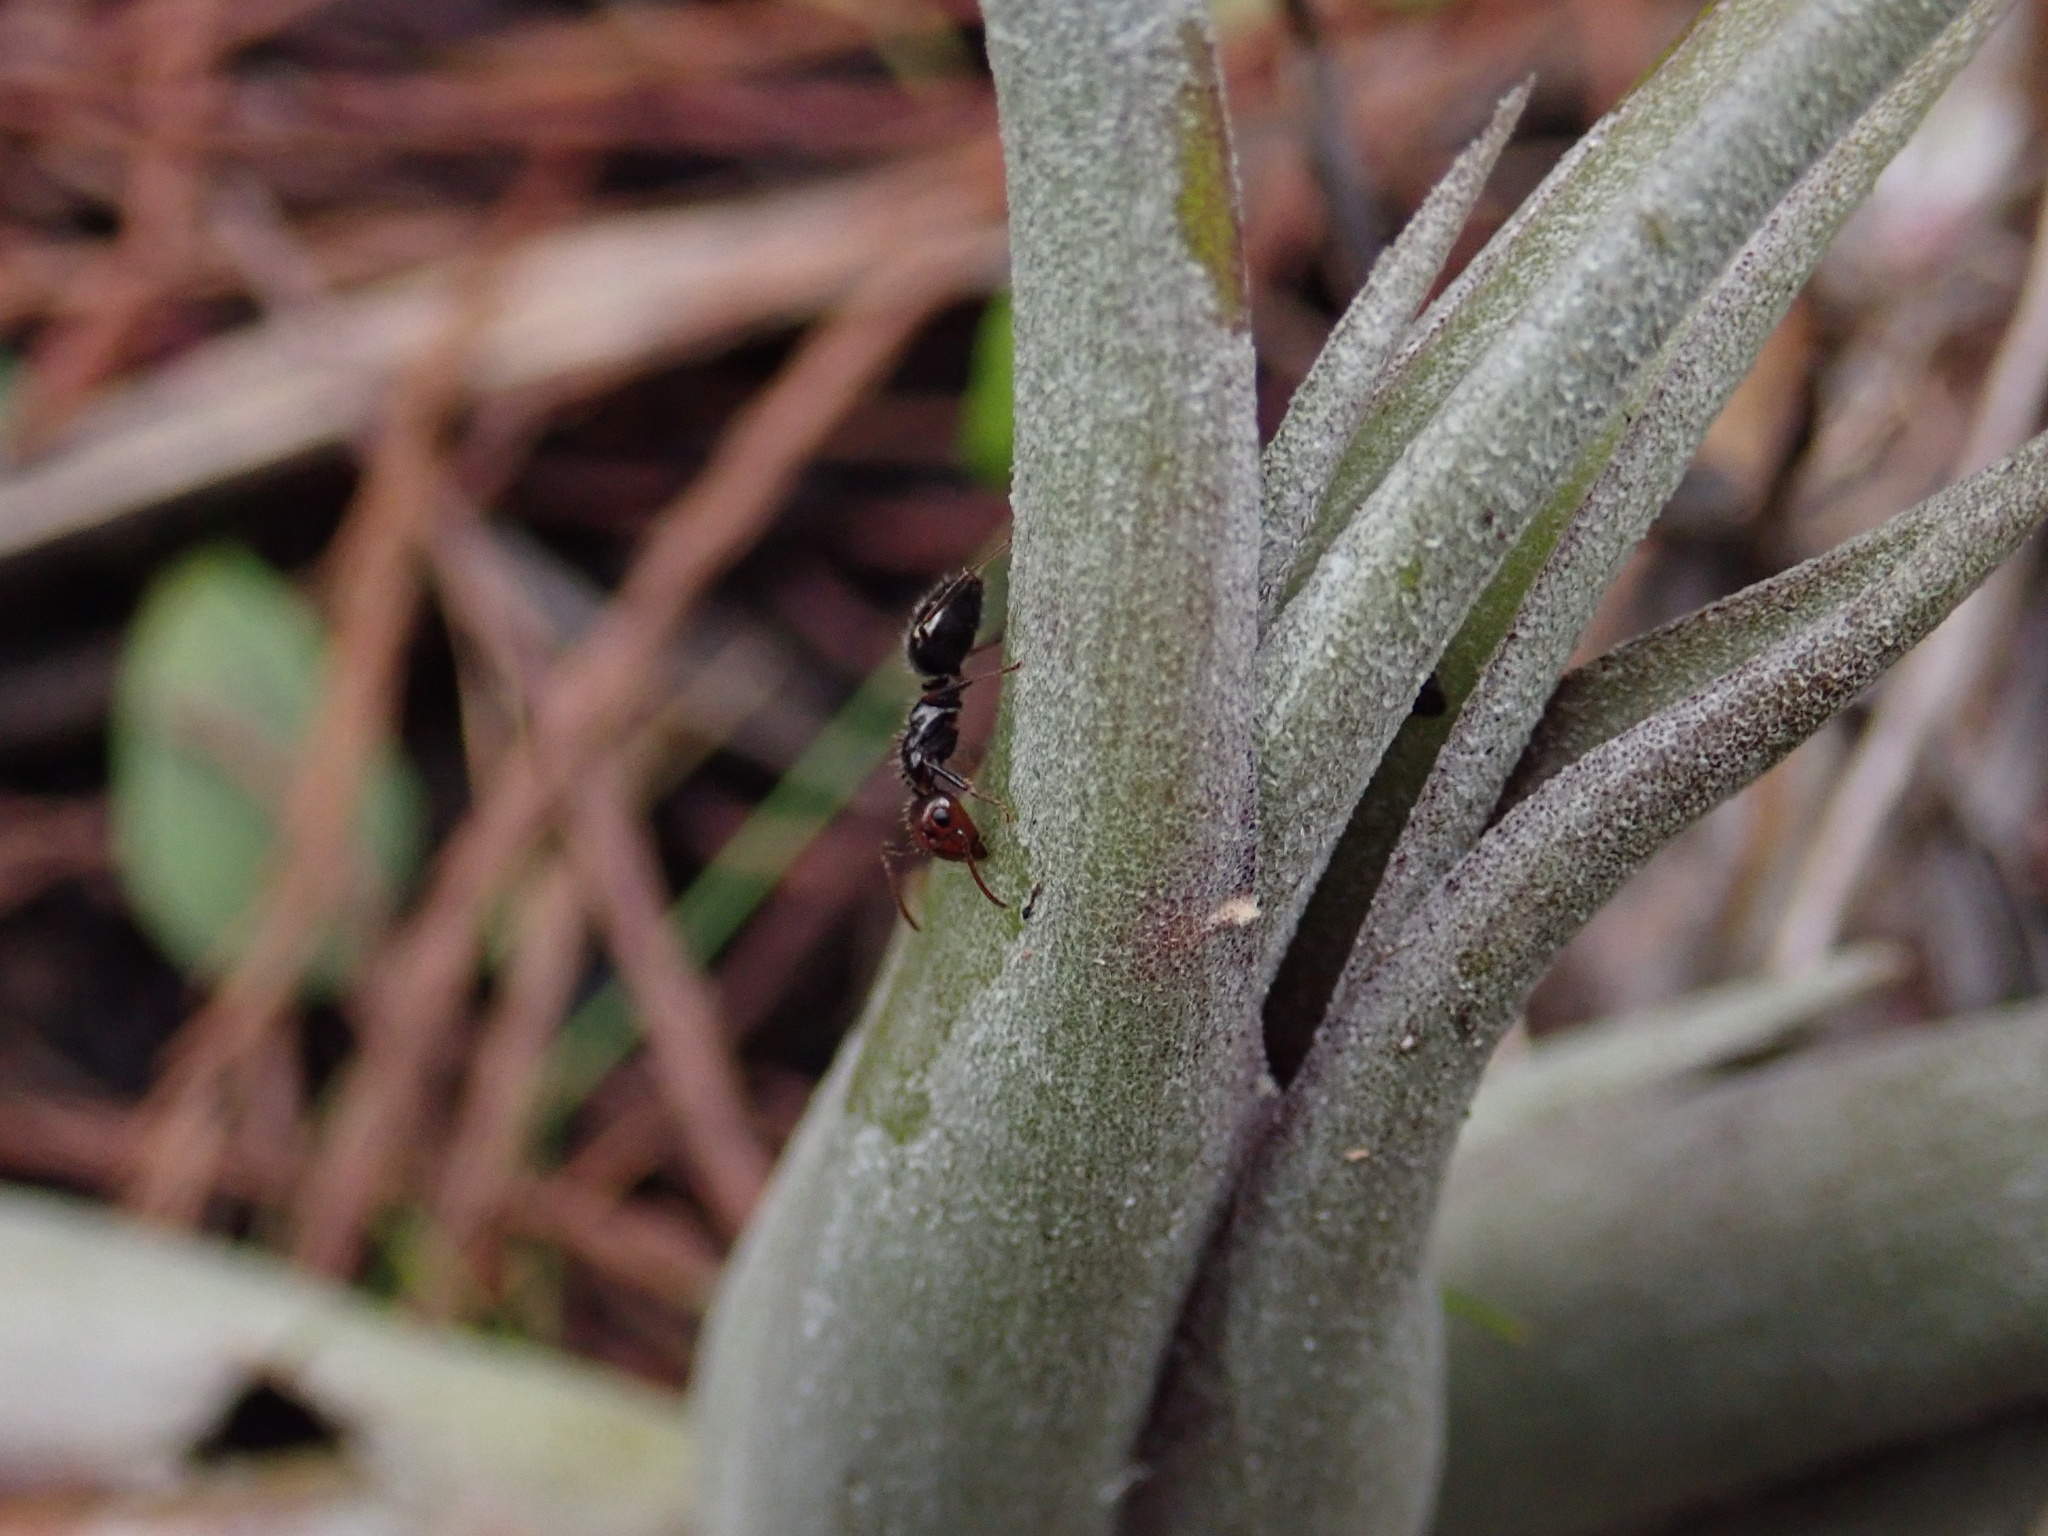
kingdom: Animalia
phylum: Arthropoda
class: Insecta
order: Hymenoptera
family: Formicidae
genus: Camponotus
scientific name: Camponotus sexguttatus
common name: Neotropical carpenter ant
